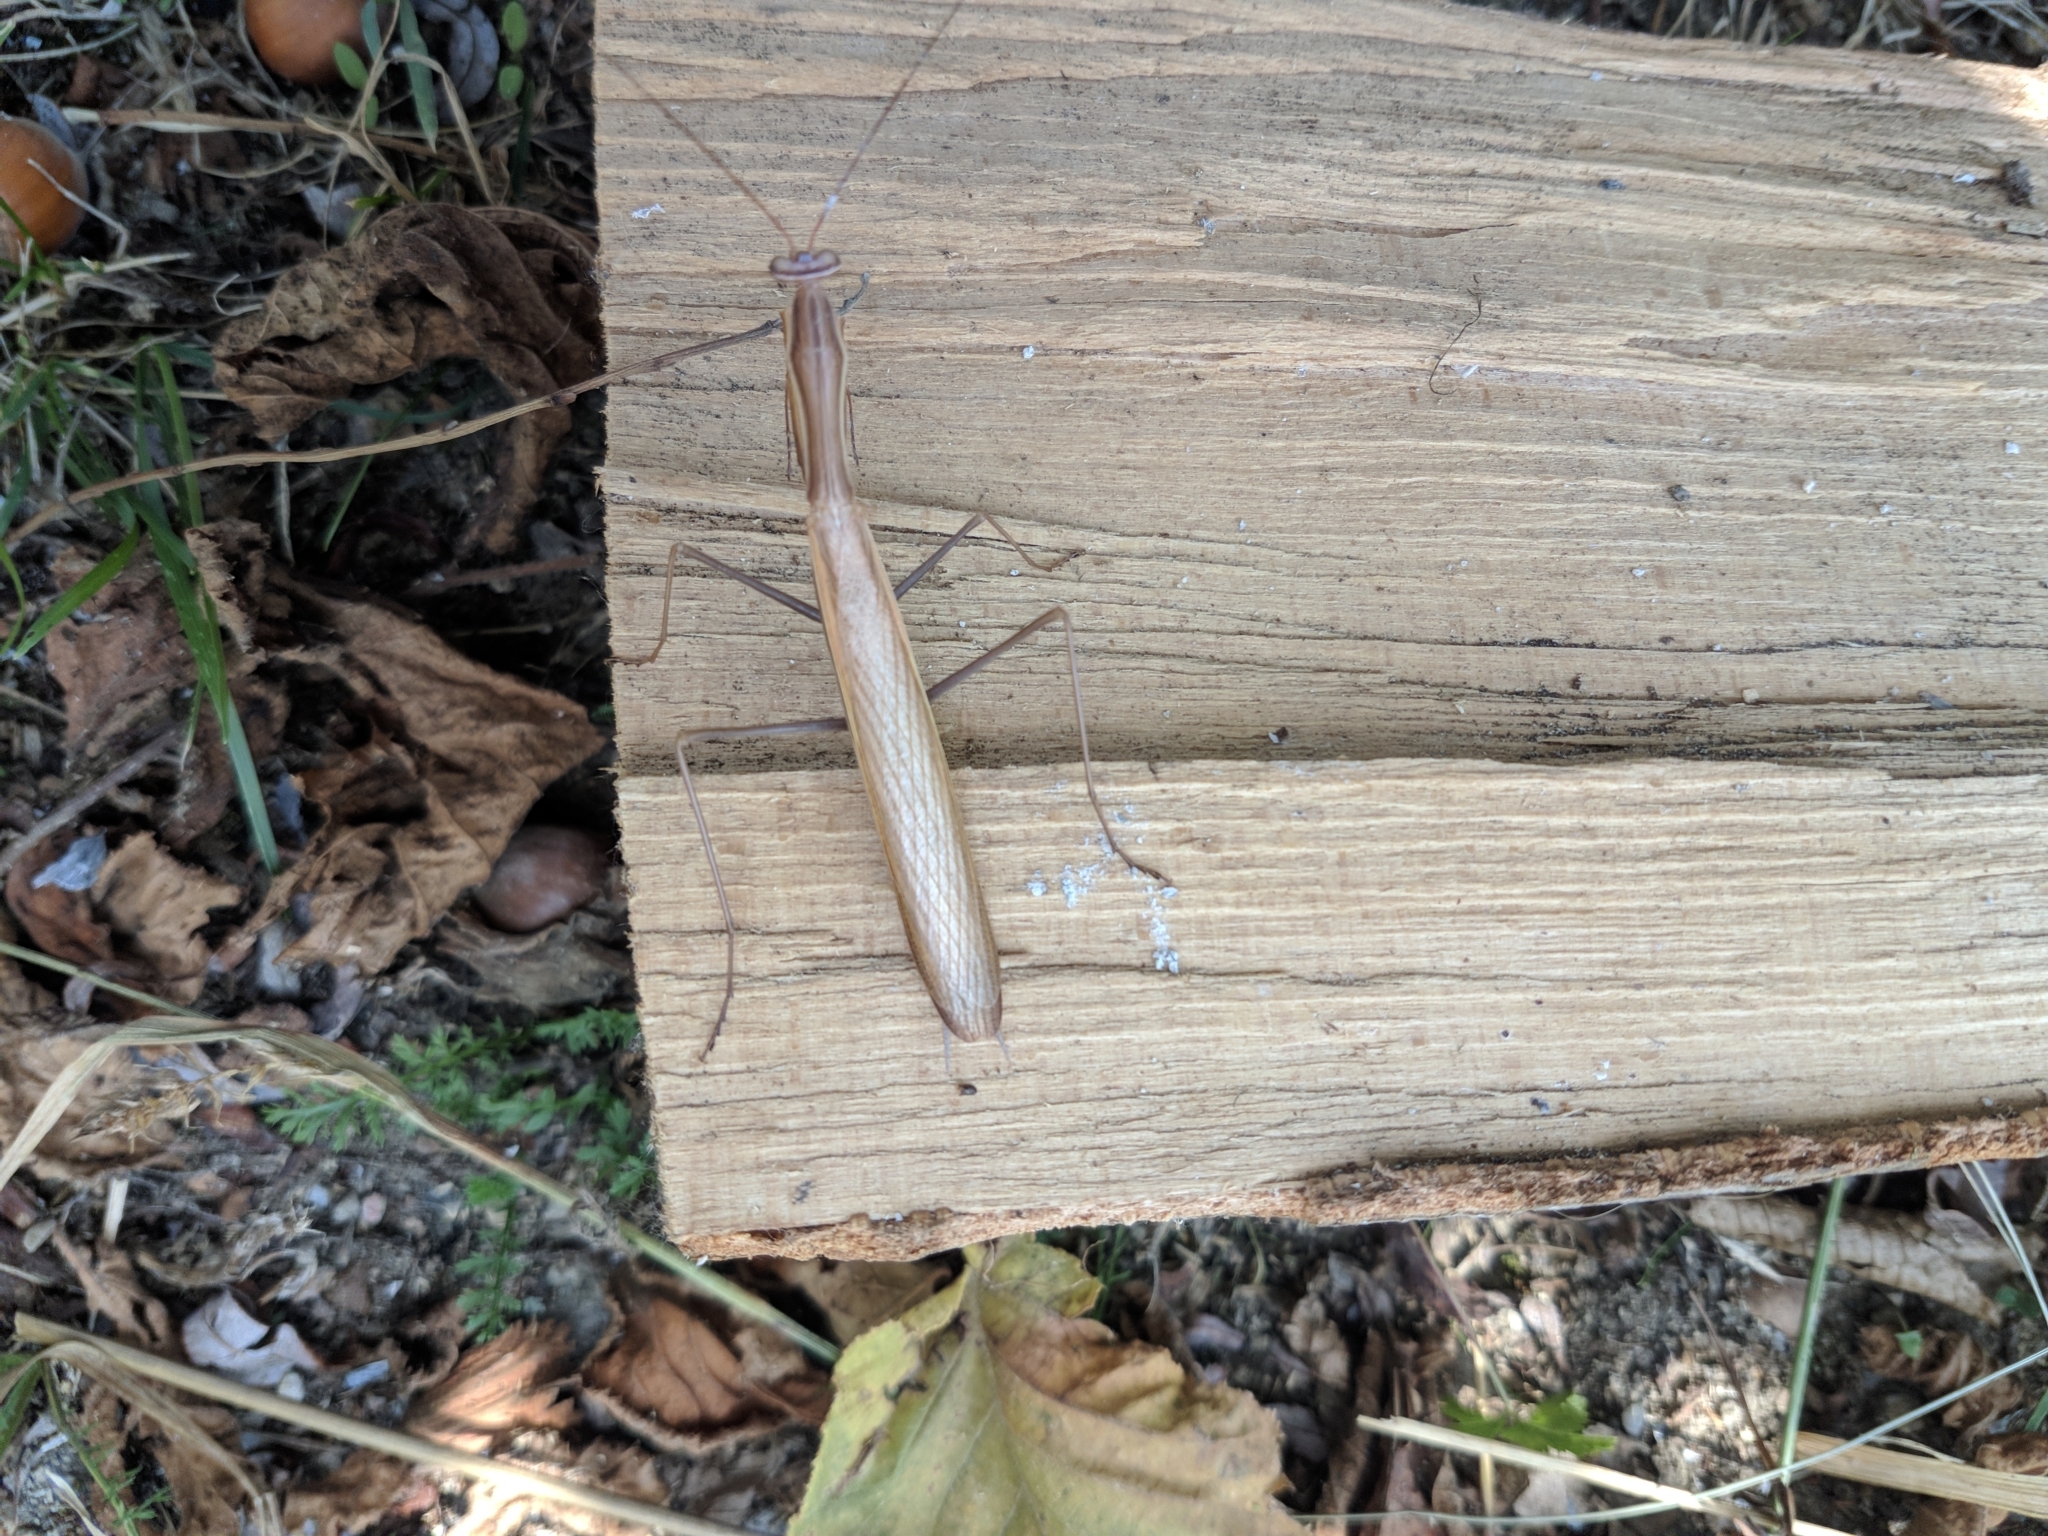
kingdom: Animalia
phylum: Arthropoda
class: Insecta
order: Mantodea
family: Mantidae
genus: Mantis
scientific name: Mantis religiosa
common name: Praying mantis
